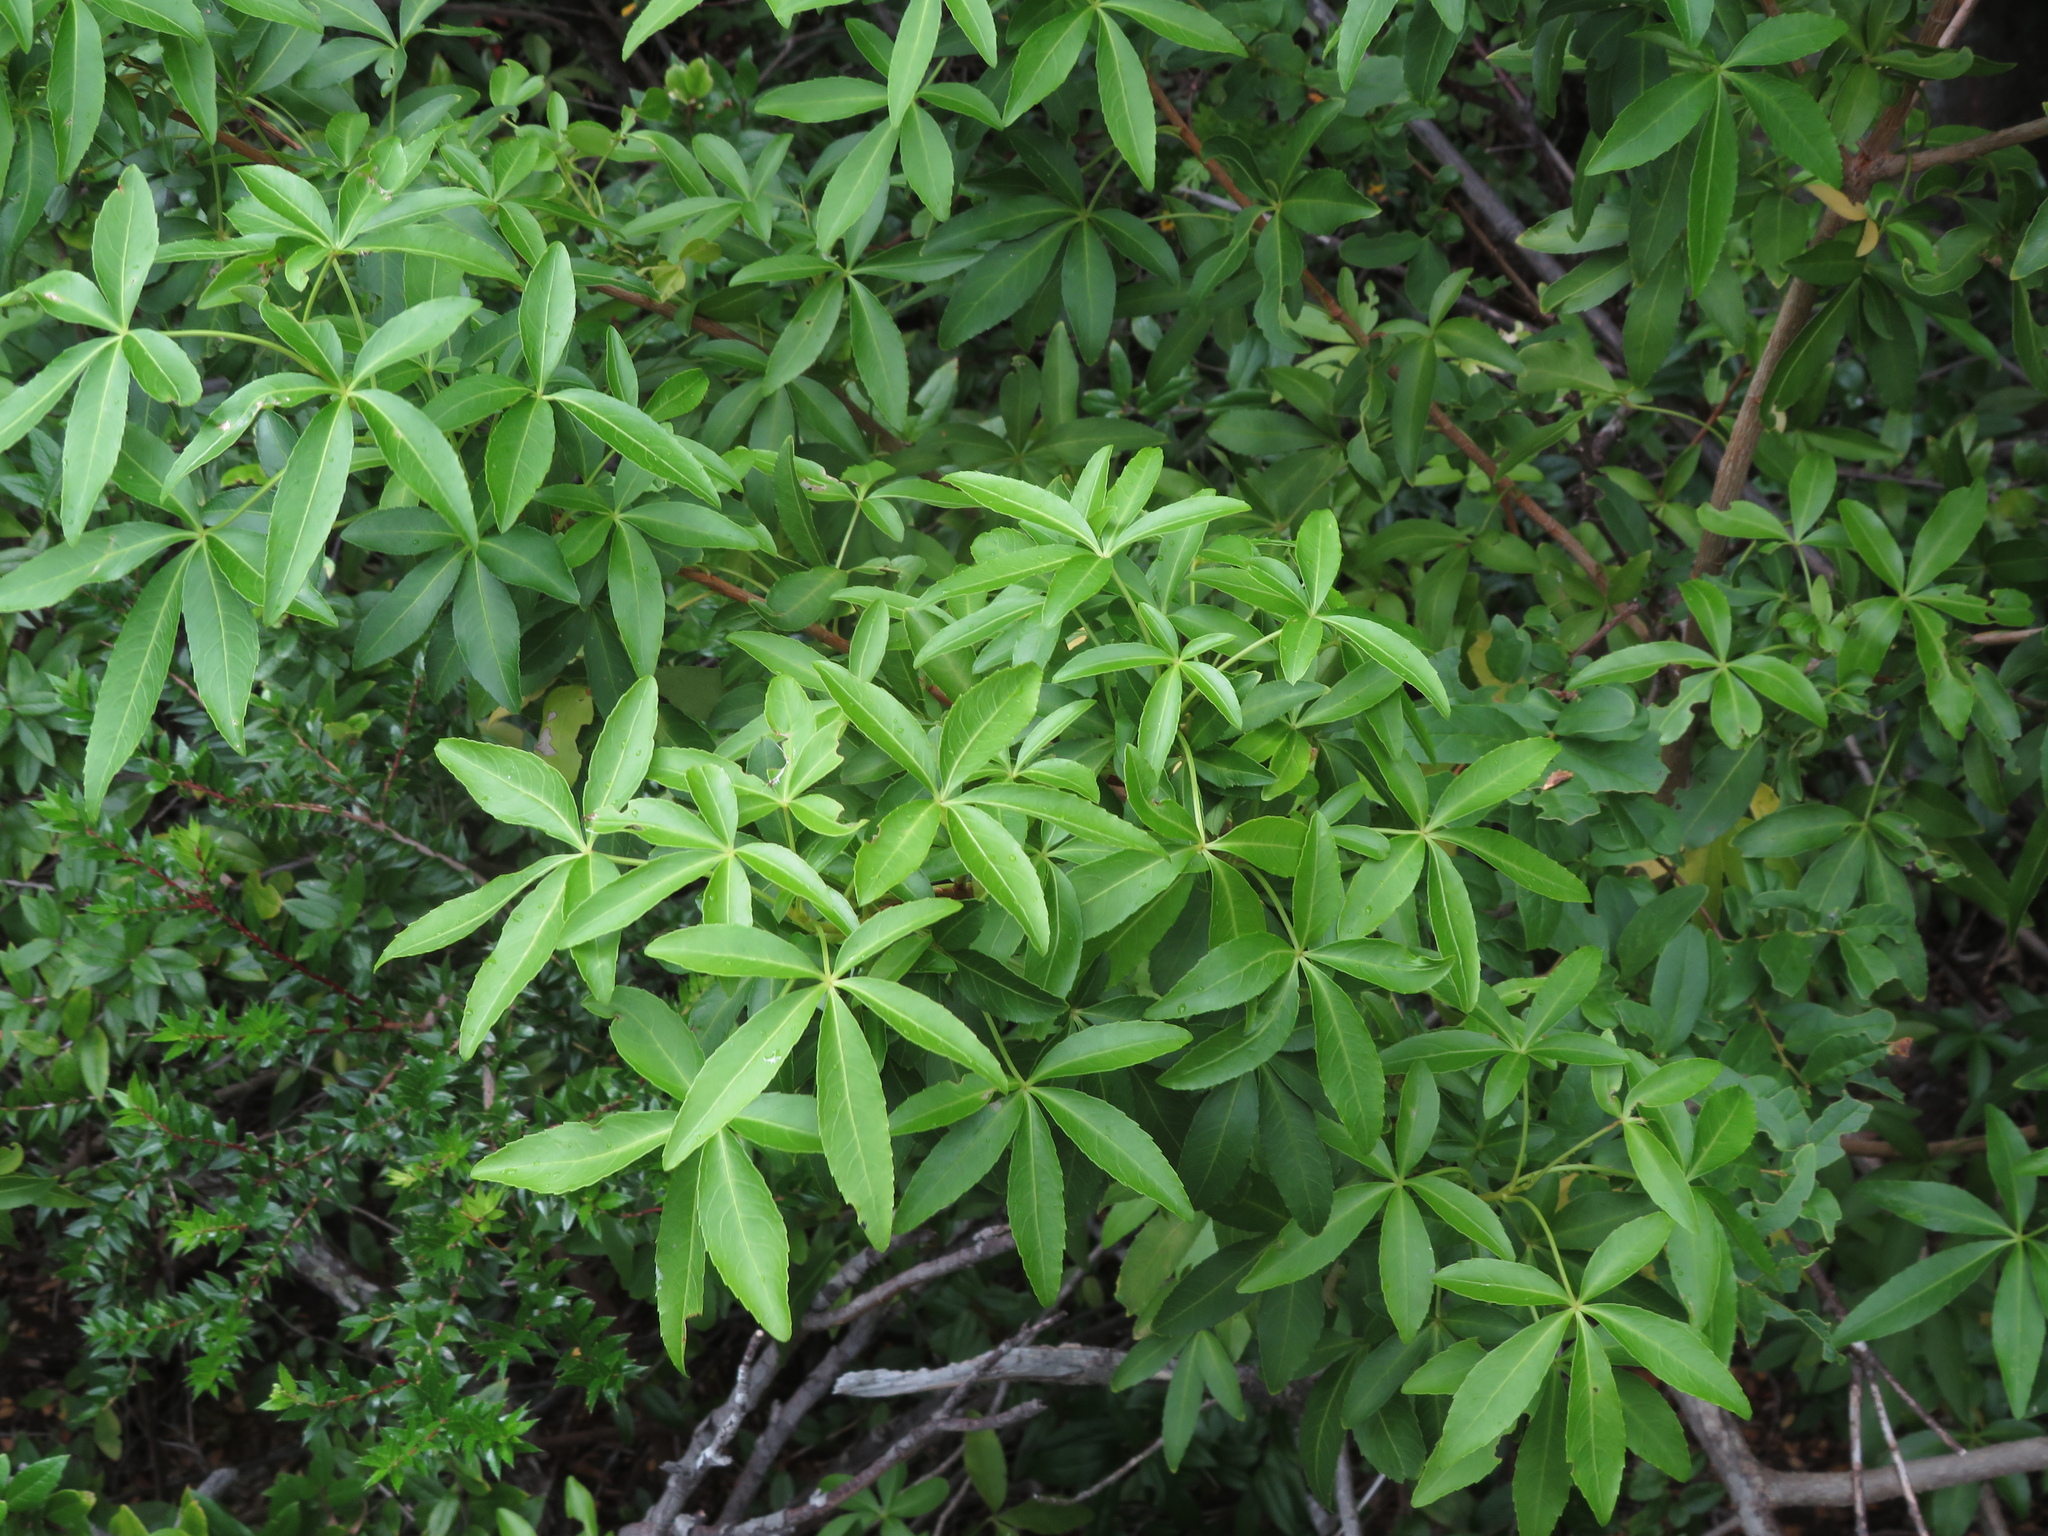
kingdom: Plantae
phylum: Tracheophyta
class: Magnoliopsida
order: Apiales
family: Araliaceae
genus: Raukaua
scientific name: Raukaua laetevirens
